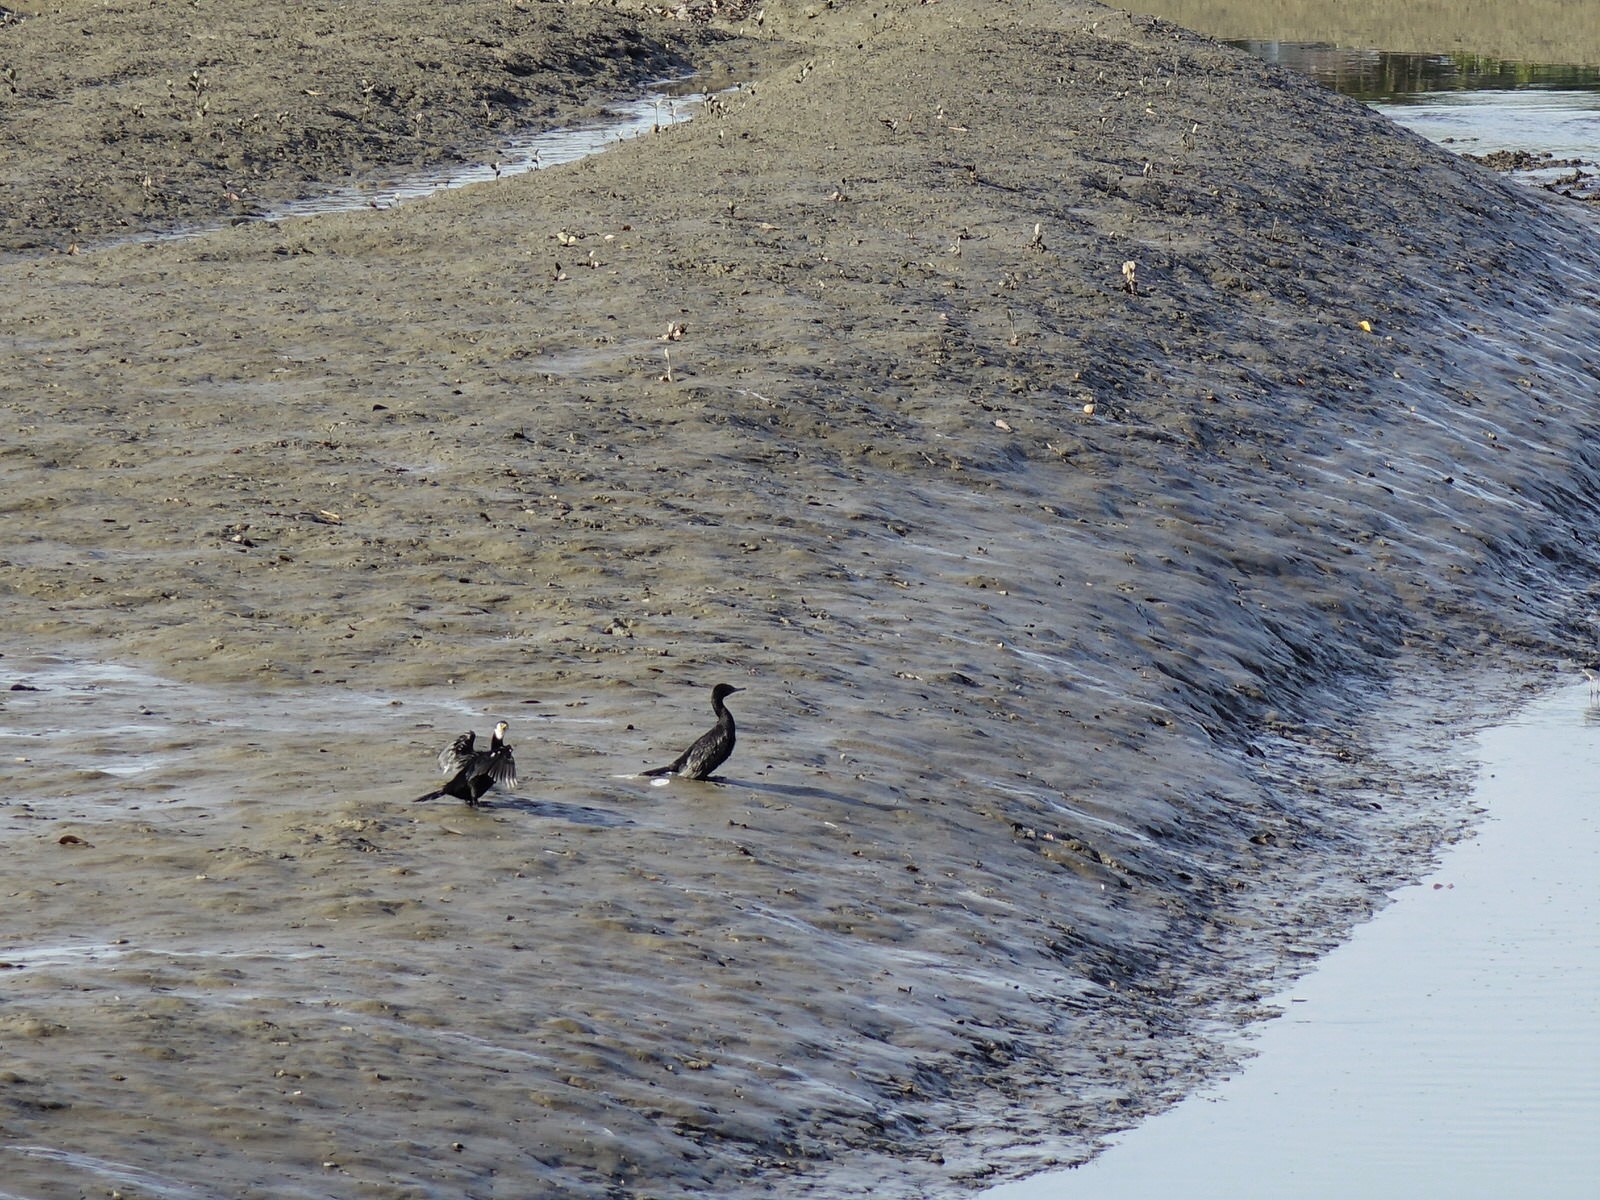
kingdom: Animalia
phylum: Chordata
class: Aves
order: Suliformes
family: Phalacrocoracidae
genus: Phalacrocorax
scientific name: Phalacrocorax sulcirostris
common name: Little black cormorant
